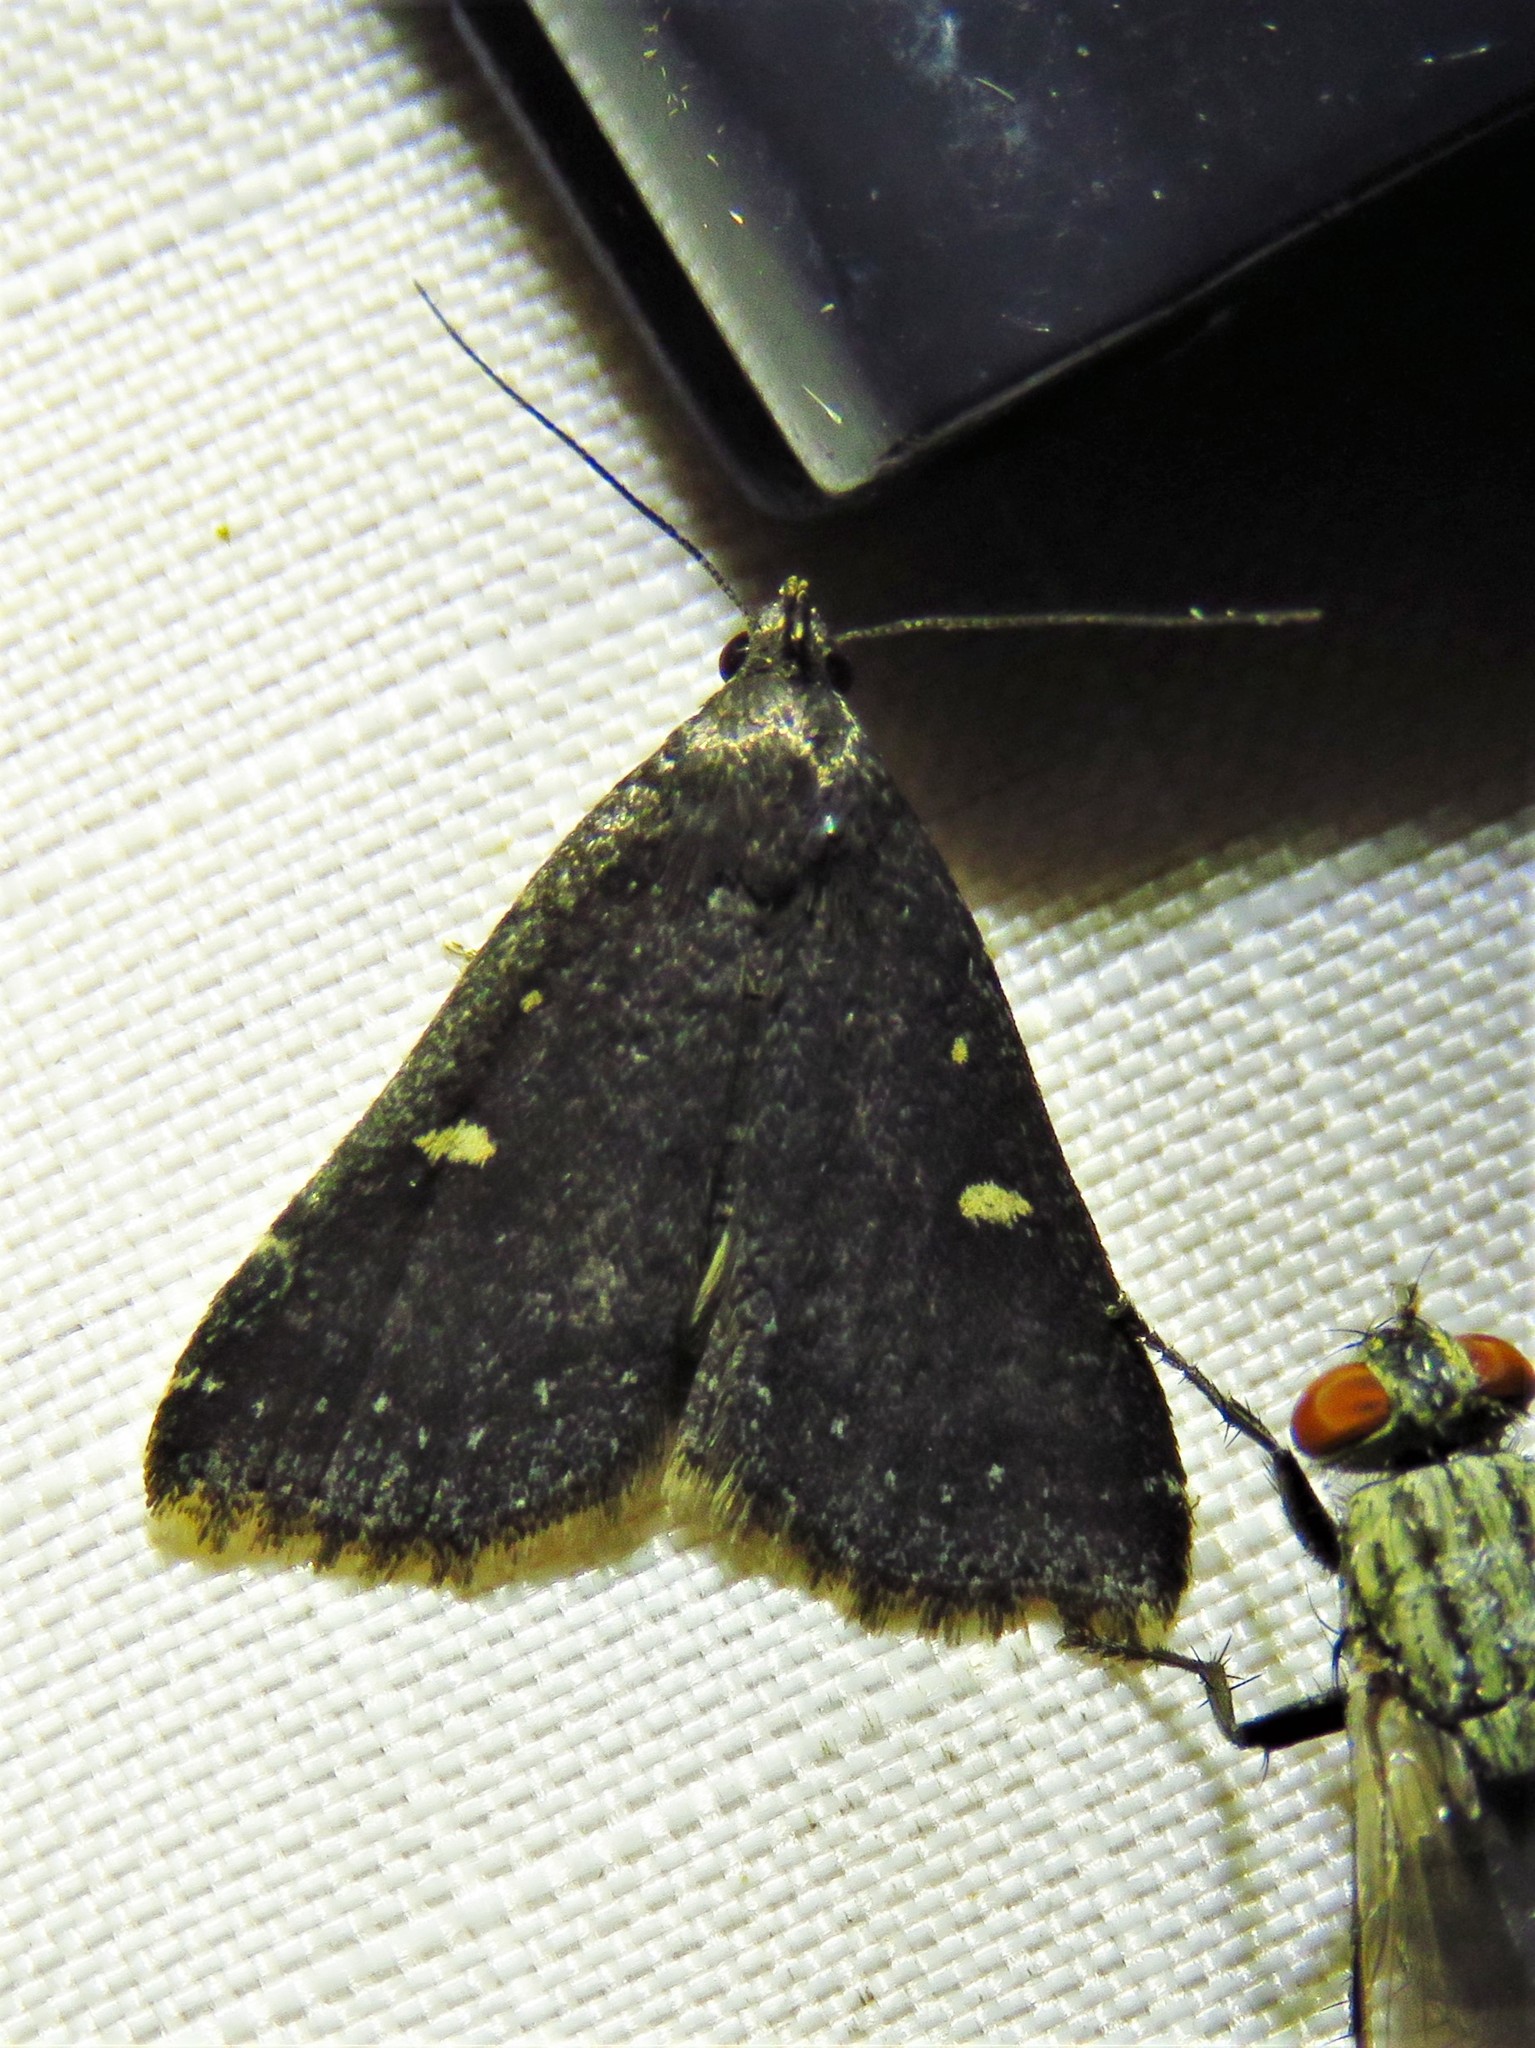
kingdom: Animalia
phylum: Arthropoda
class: Insecta
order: Lepidoptera
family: Erebidae
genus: Tetanolita
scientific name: Tetanolita mynesalis
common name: Smoky tetanolita moth
